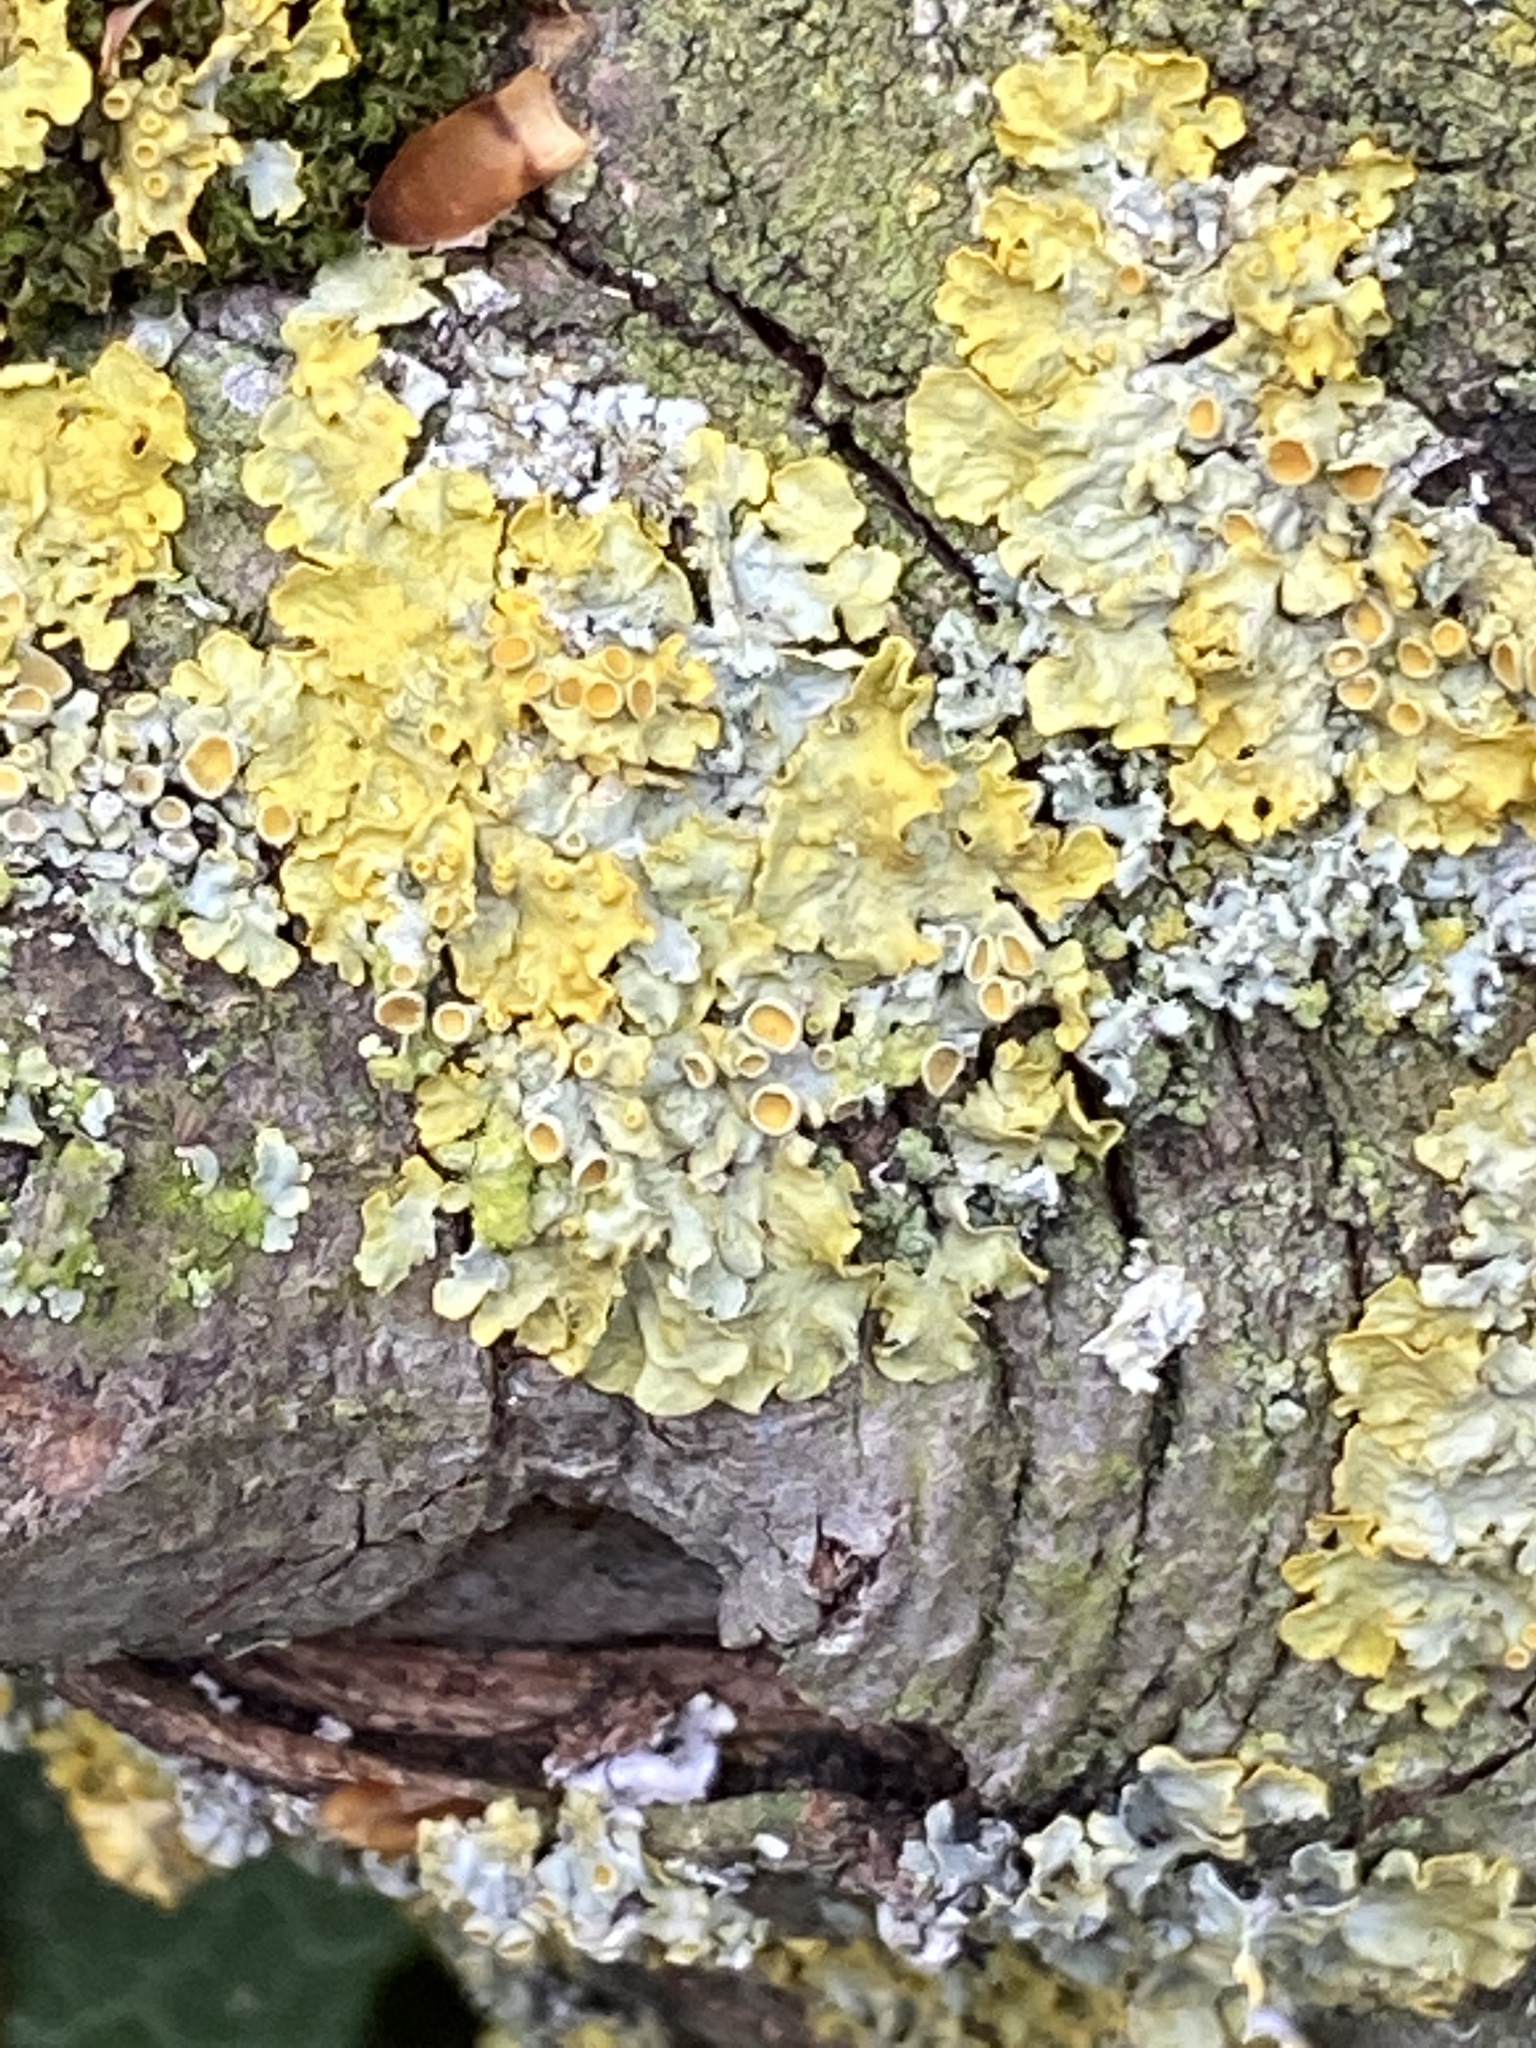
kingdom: Fungi
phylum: Ascomycota
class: Lecanoromycetes
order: Teloschistales
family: Teloschistaceae
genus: Xanthoria
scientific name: Xanthoria parietina
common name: Common orange lichen
